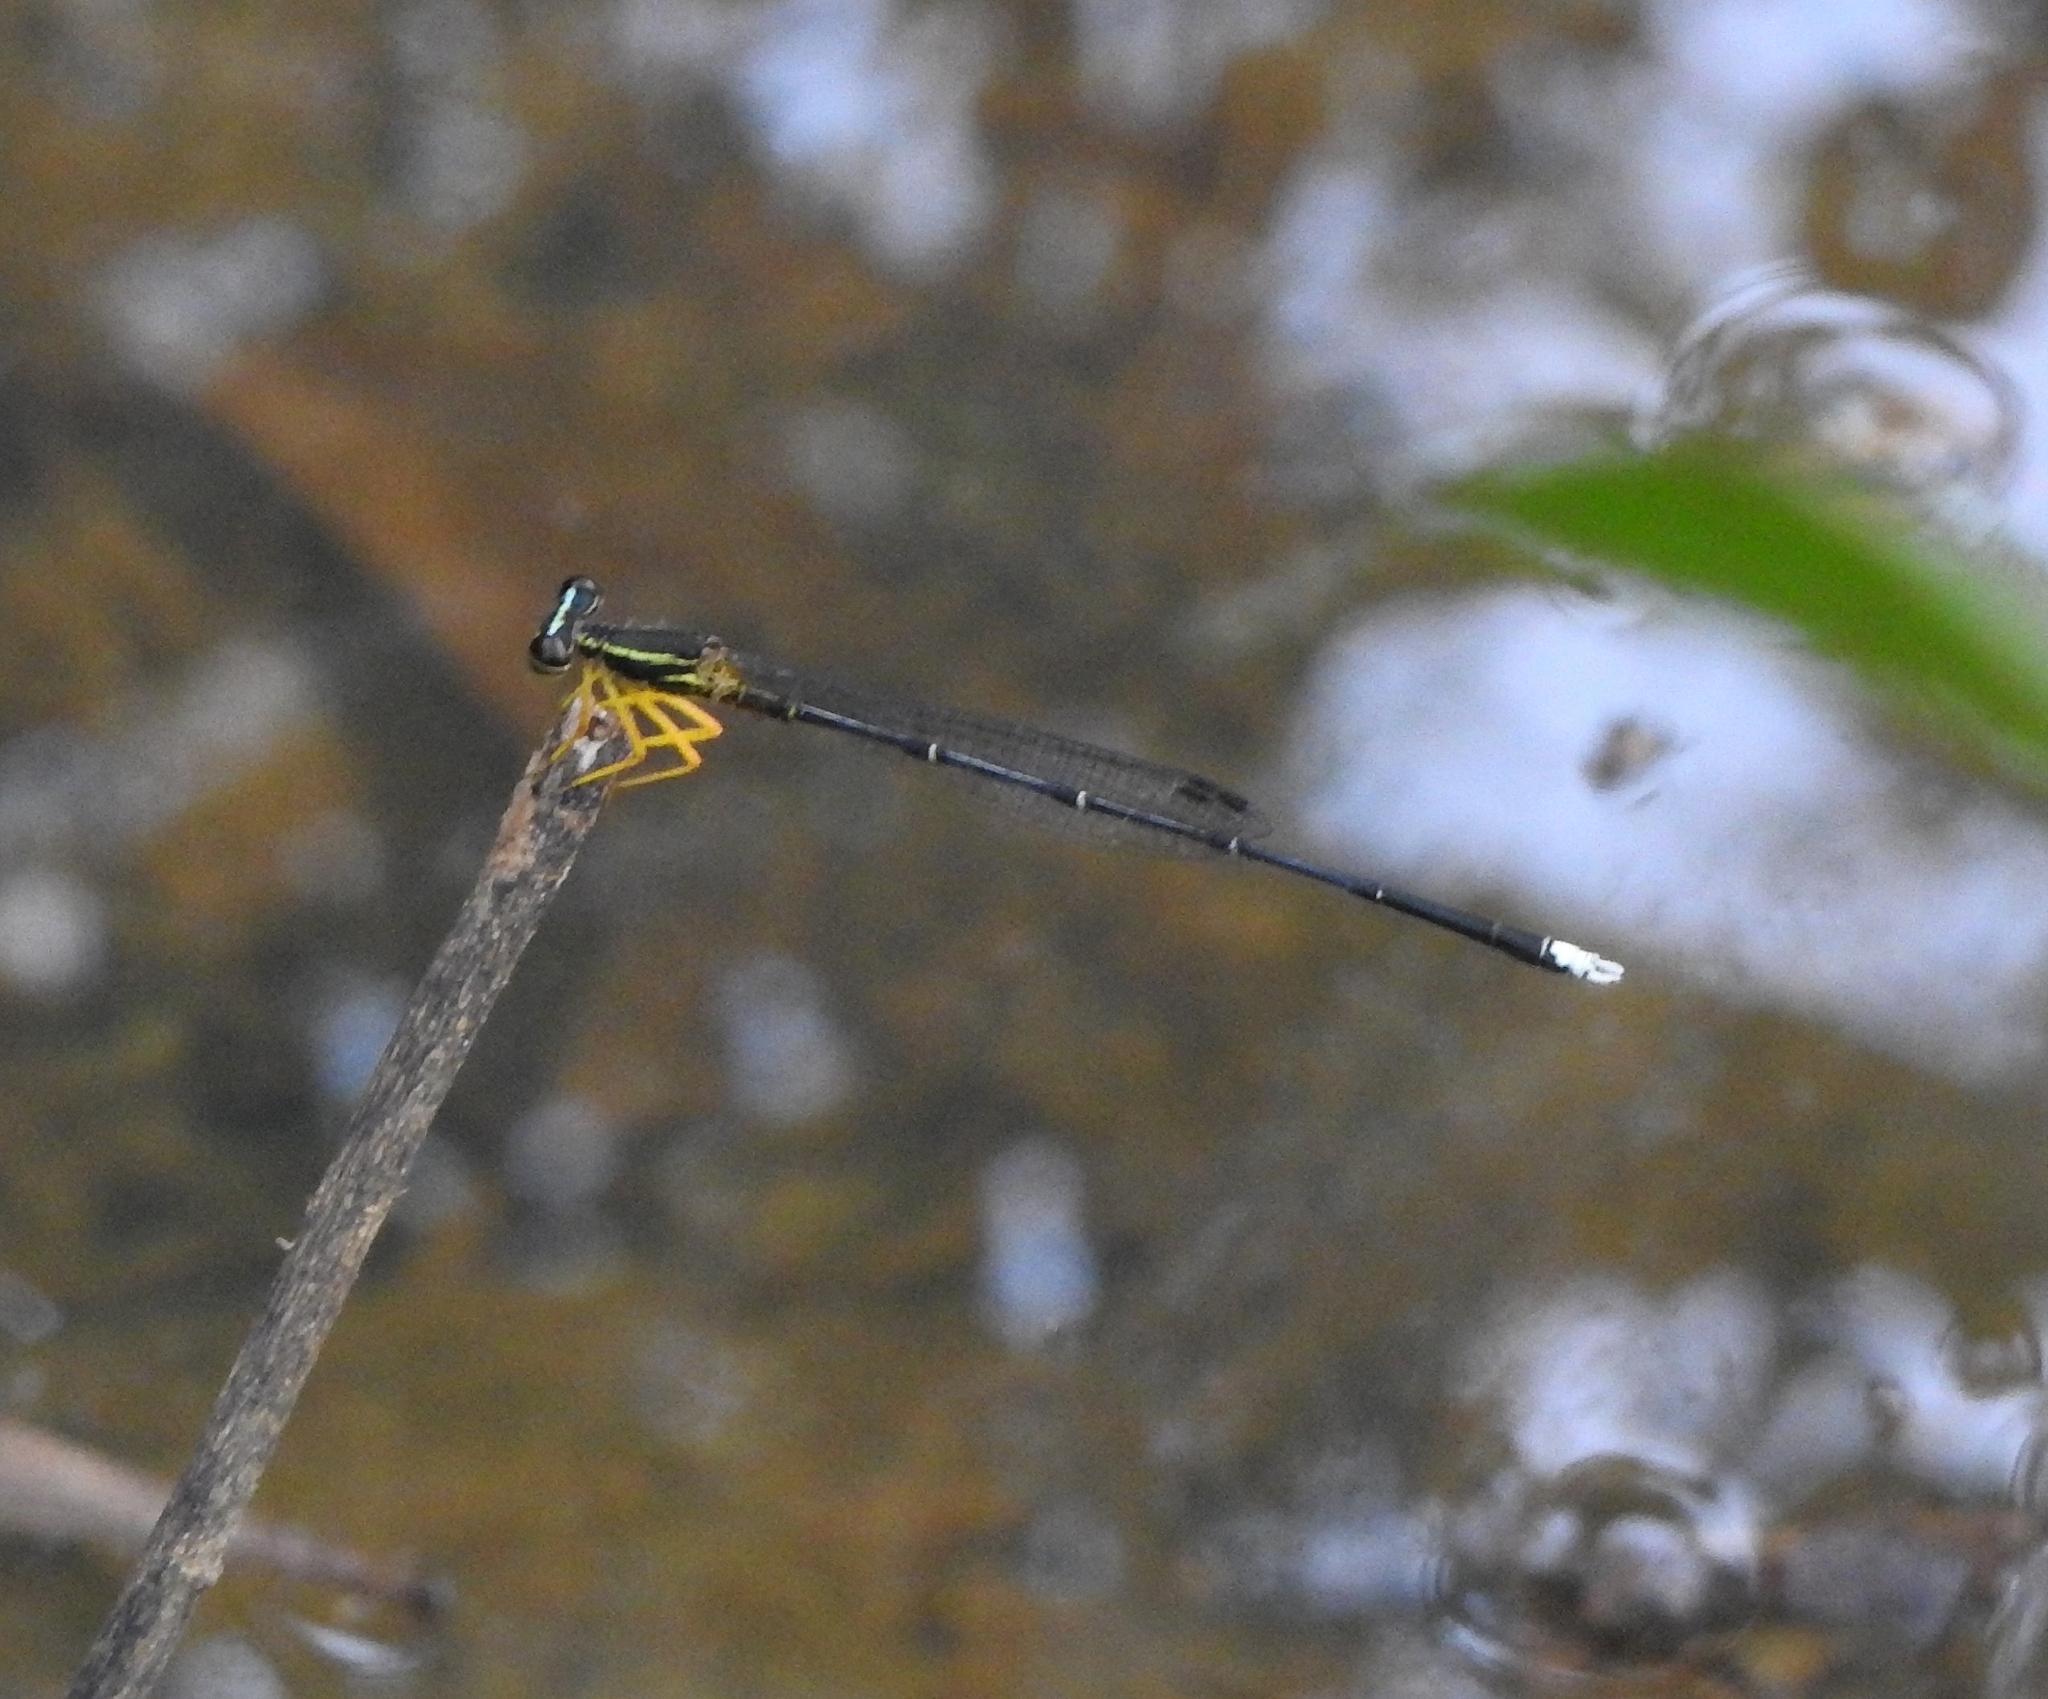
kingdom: Animalia
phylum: Arthropoda
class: Insecta
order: Odonata
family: Platycnemididae
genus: Copera
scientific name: Copera marginipes
